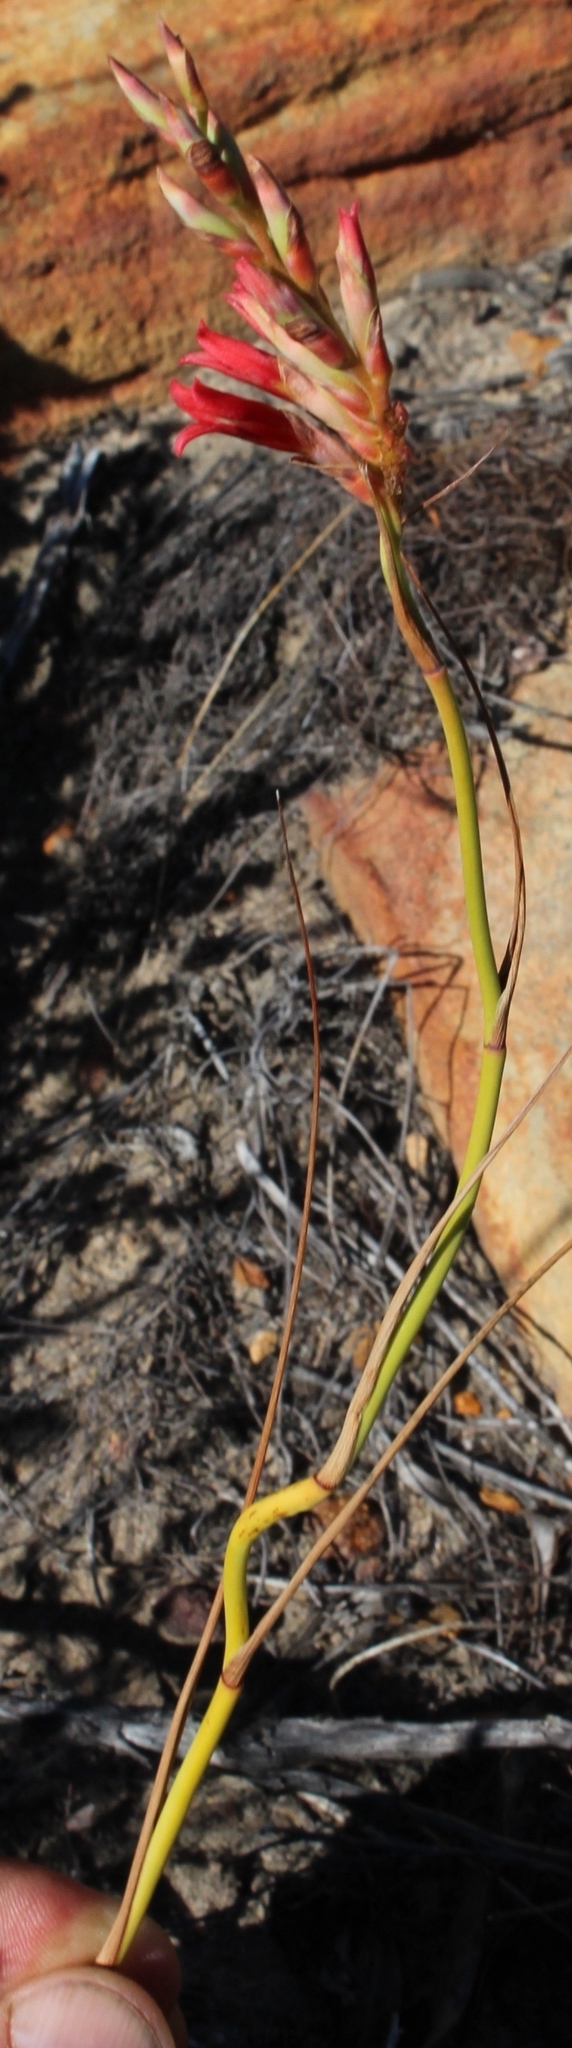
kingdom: Plantae
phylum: Tracheophyta
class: Liliopsida
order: Asparagales
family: Iridaceae
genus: Tritoniopsis
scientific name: Tritoniopsis triticea
